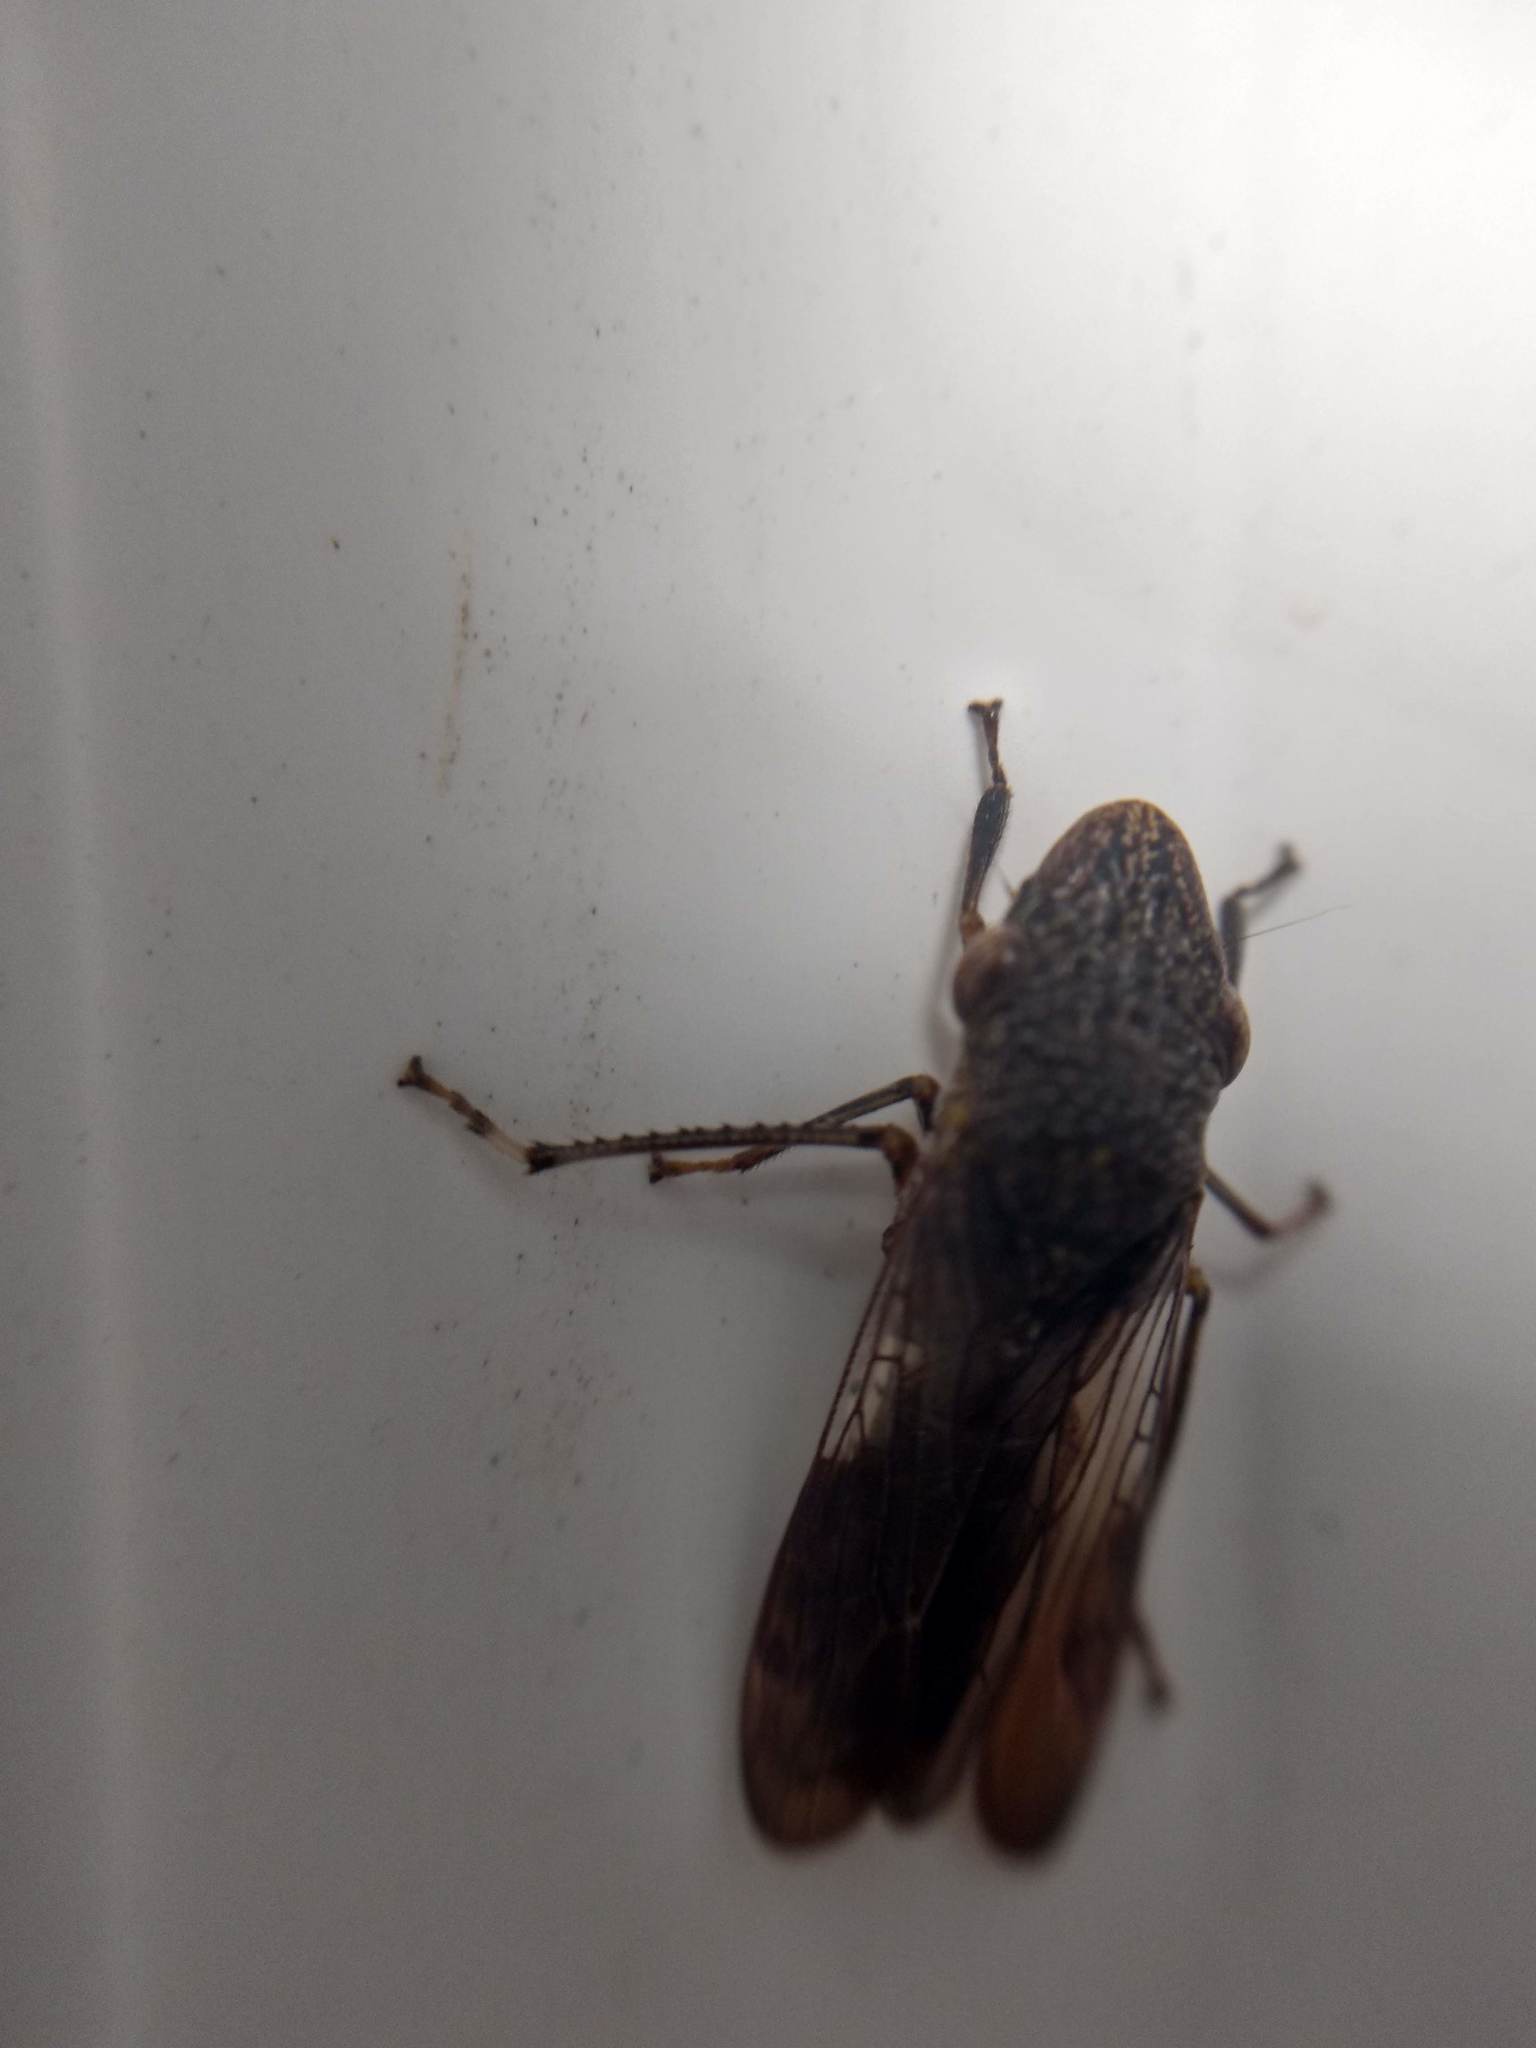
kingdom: Animalia
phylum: Arthropoda
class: Insecta
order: Hemiptera
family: Cicadellidae
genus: Homalodisca
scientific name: Homalodisca vitripennis
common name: Glassy-winged sharpshooter
